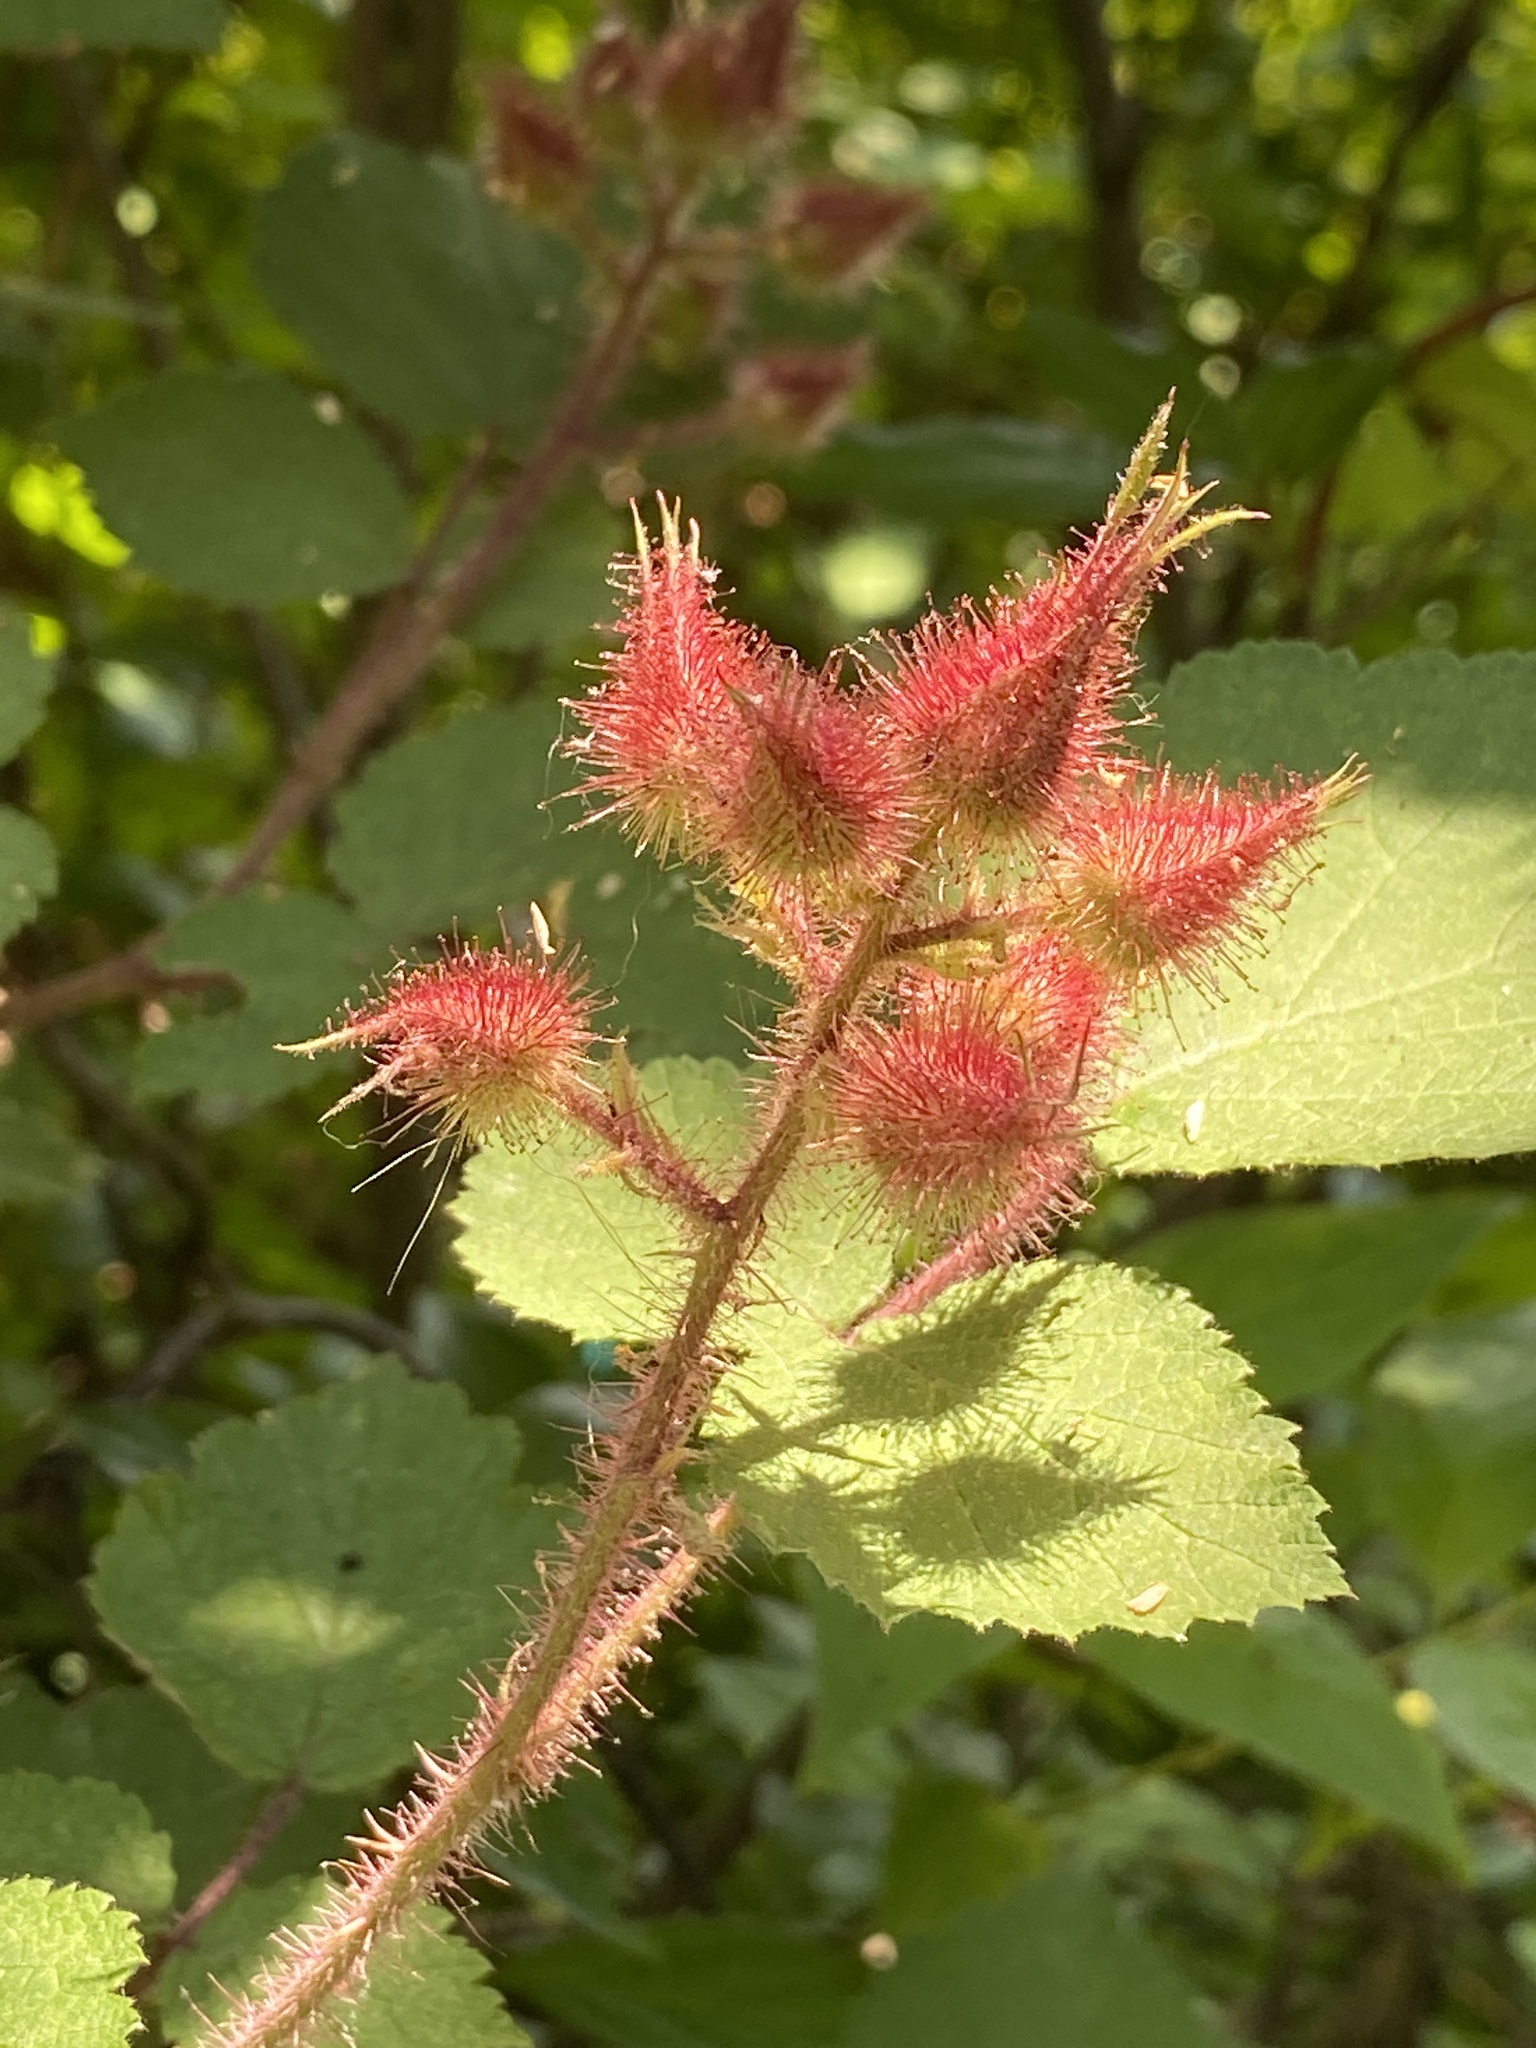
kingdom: Plantae
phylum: Tracheophyta
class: Magnoliopsida
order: Rosales
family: Rosaceae
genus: Rubus
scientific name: Rubus phoenicolasius
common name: Japanese wineberry
